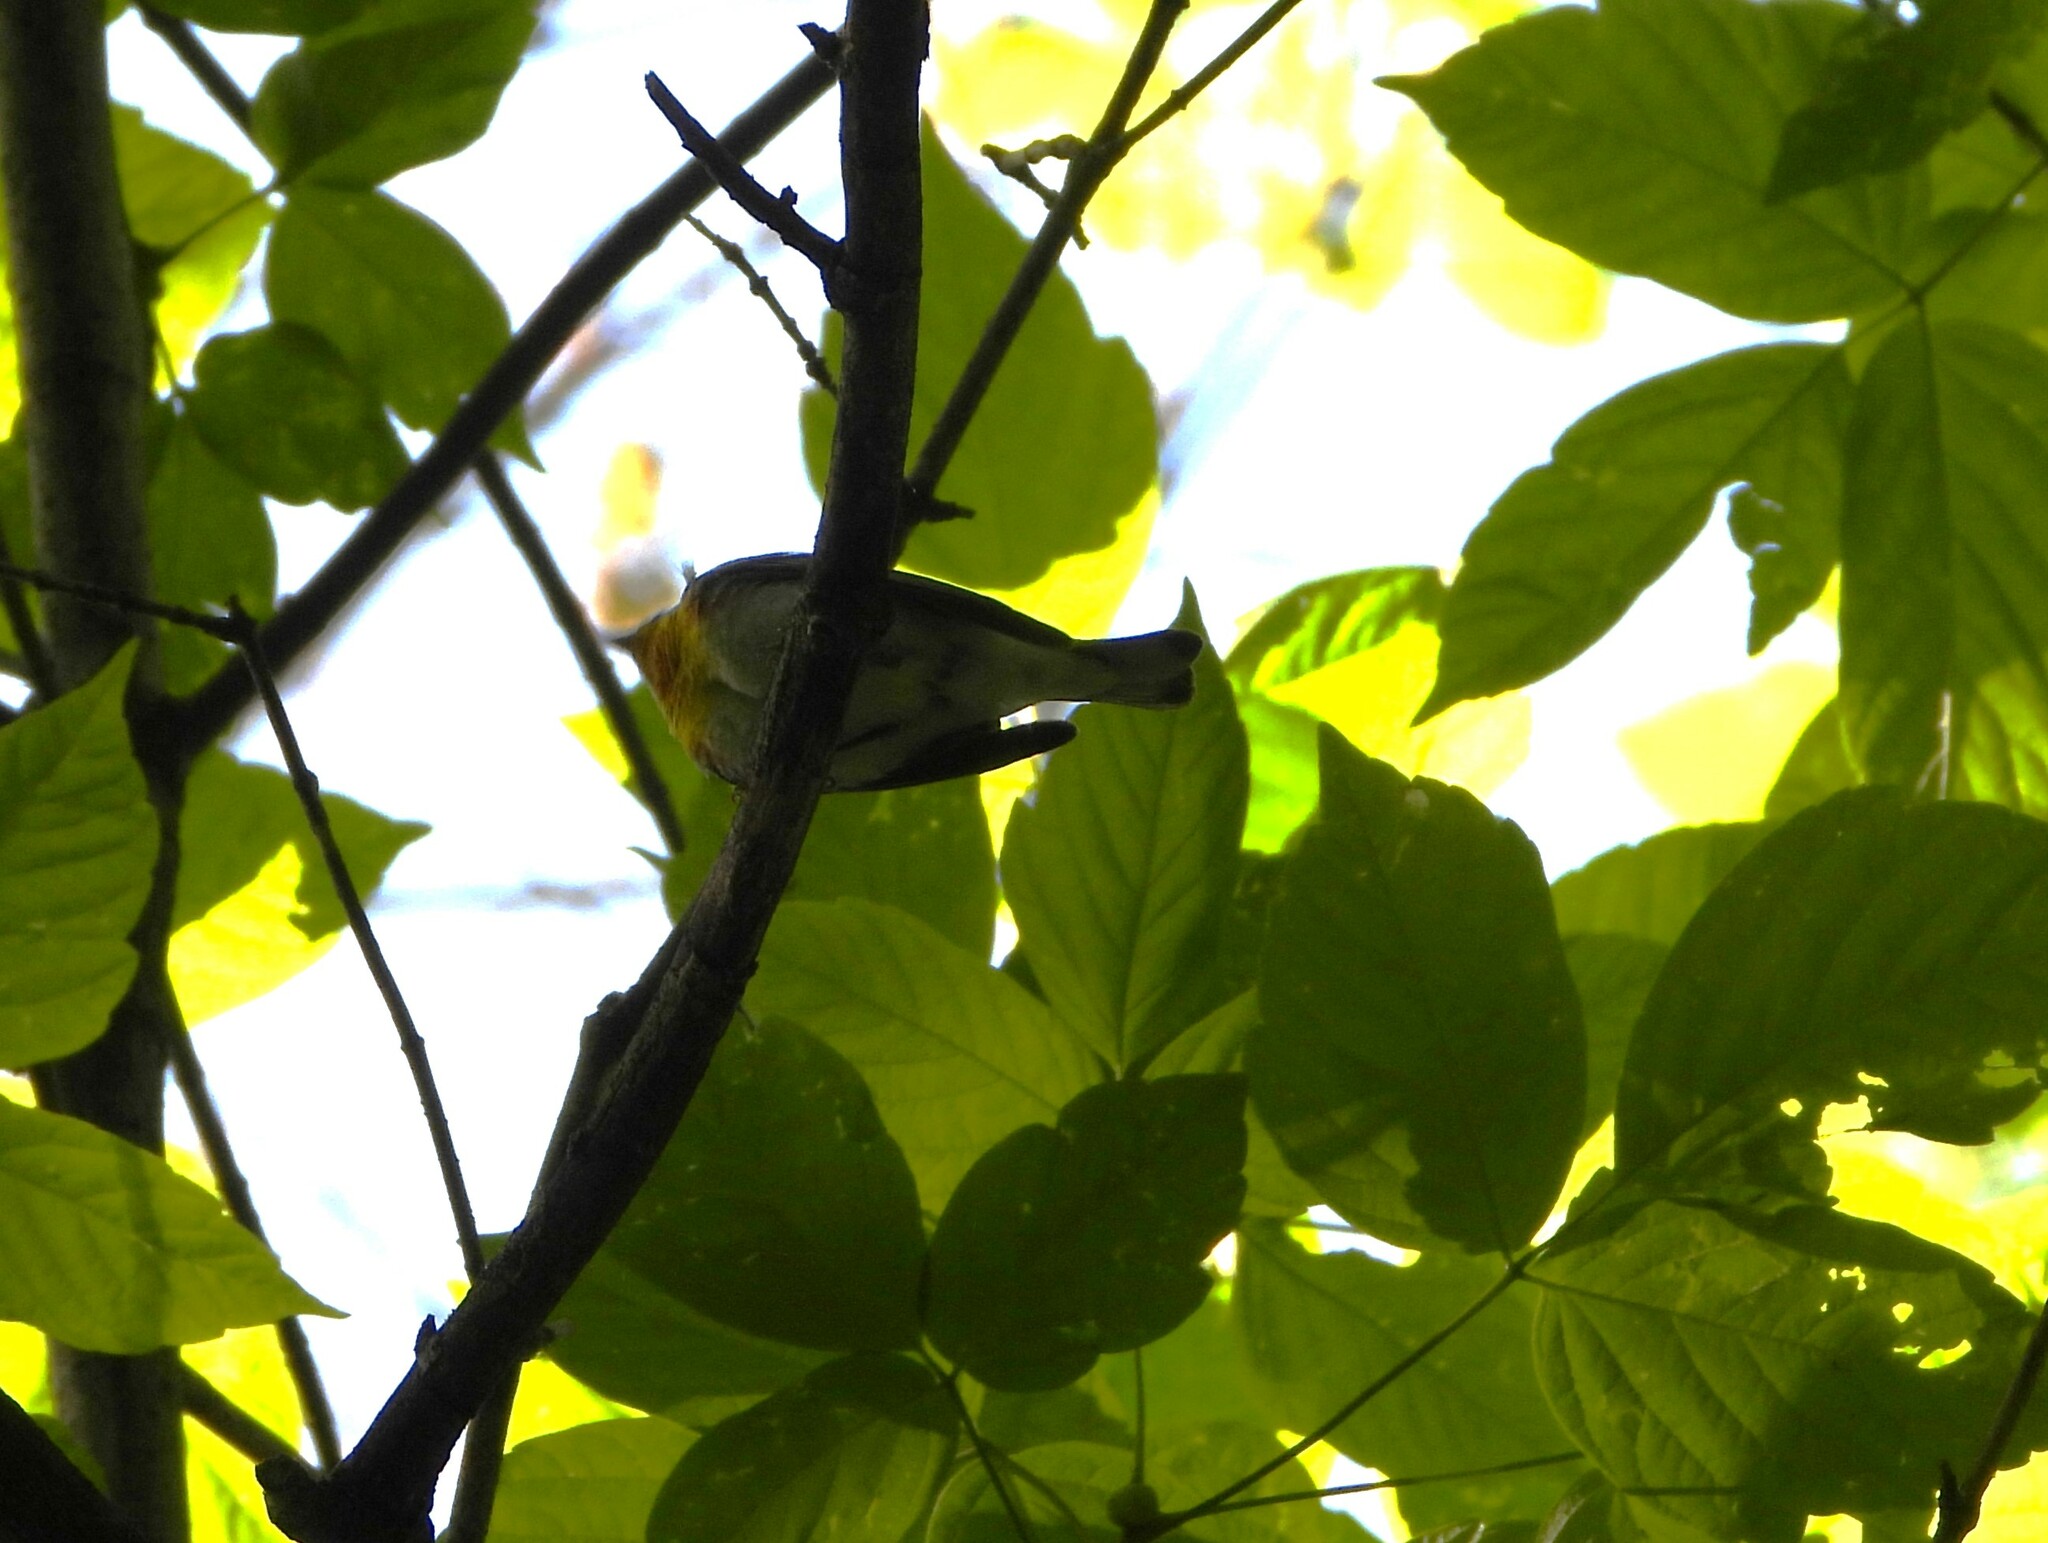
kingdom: Animalia
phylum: Chordata
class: Aves
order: Passeriformes
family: Parulidae
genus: Setophaga
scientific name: Setophaga americana
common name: Northern parula
